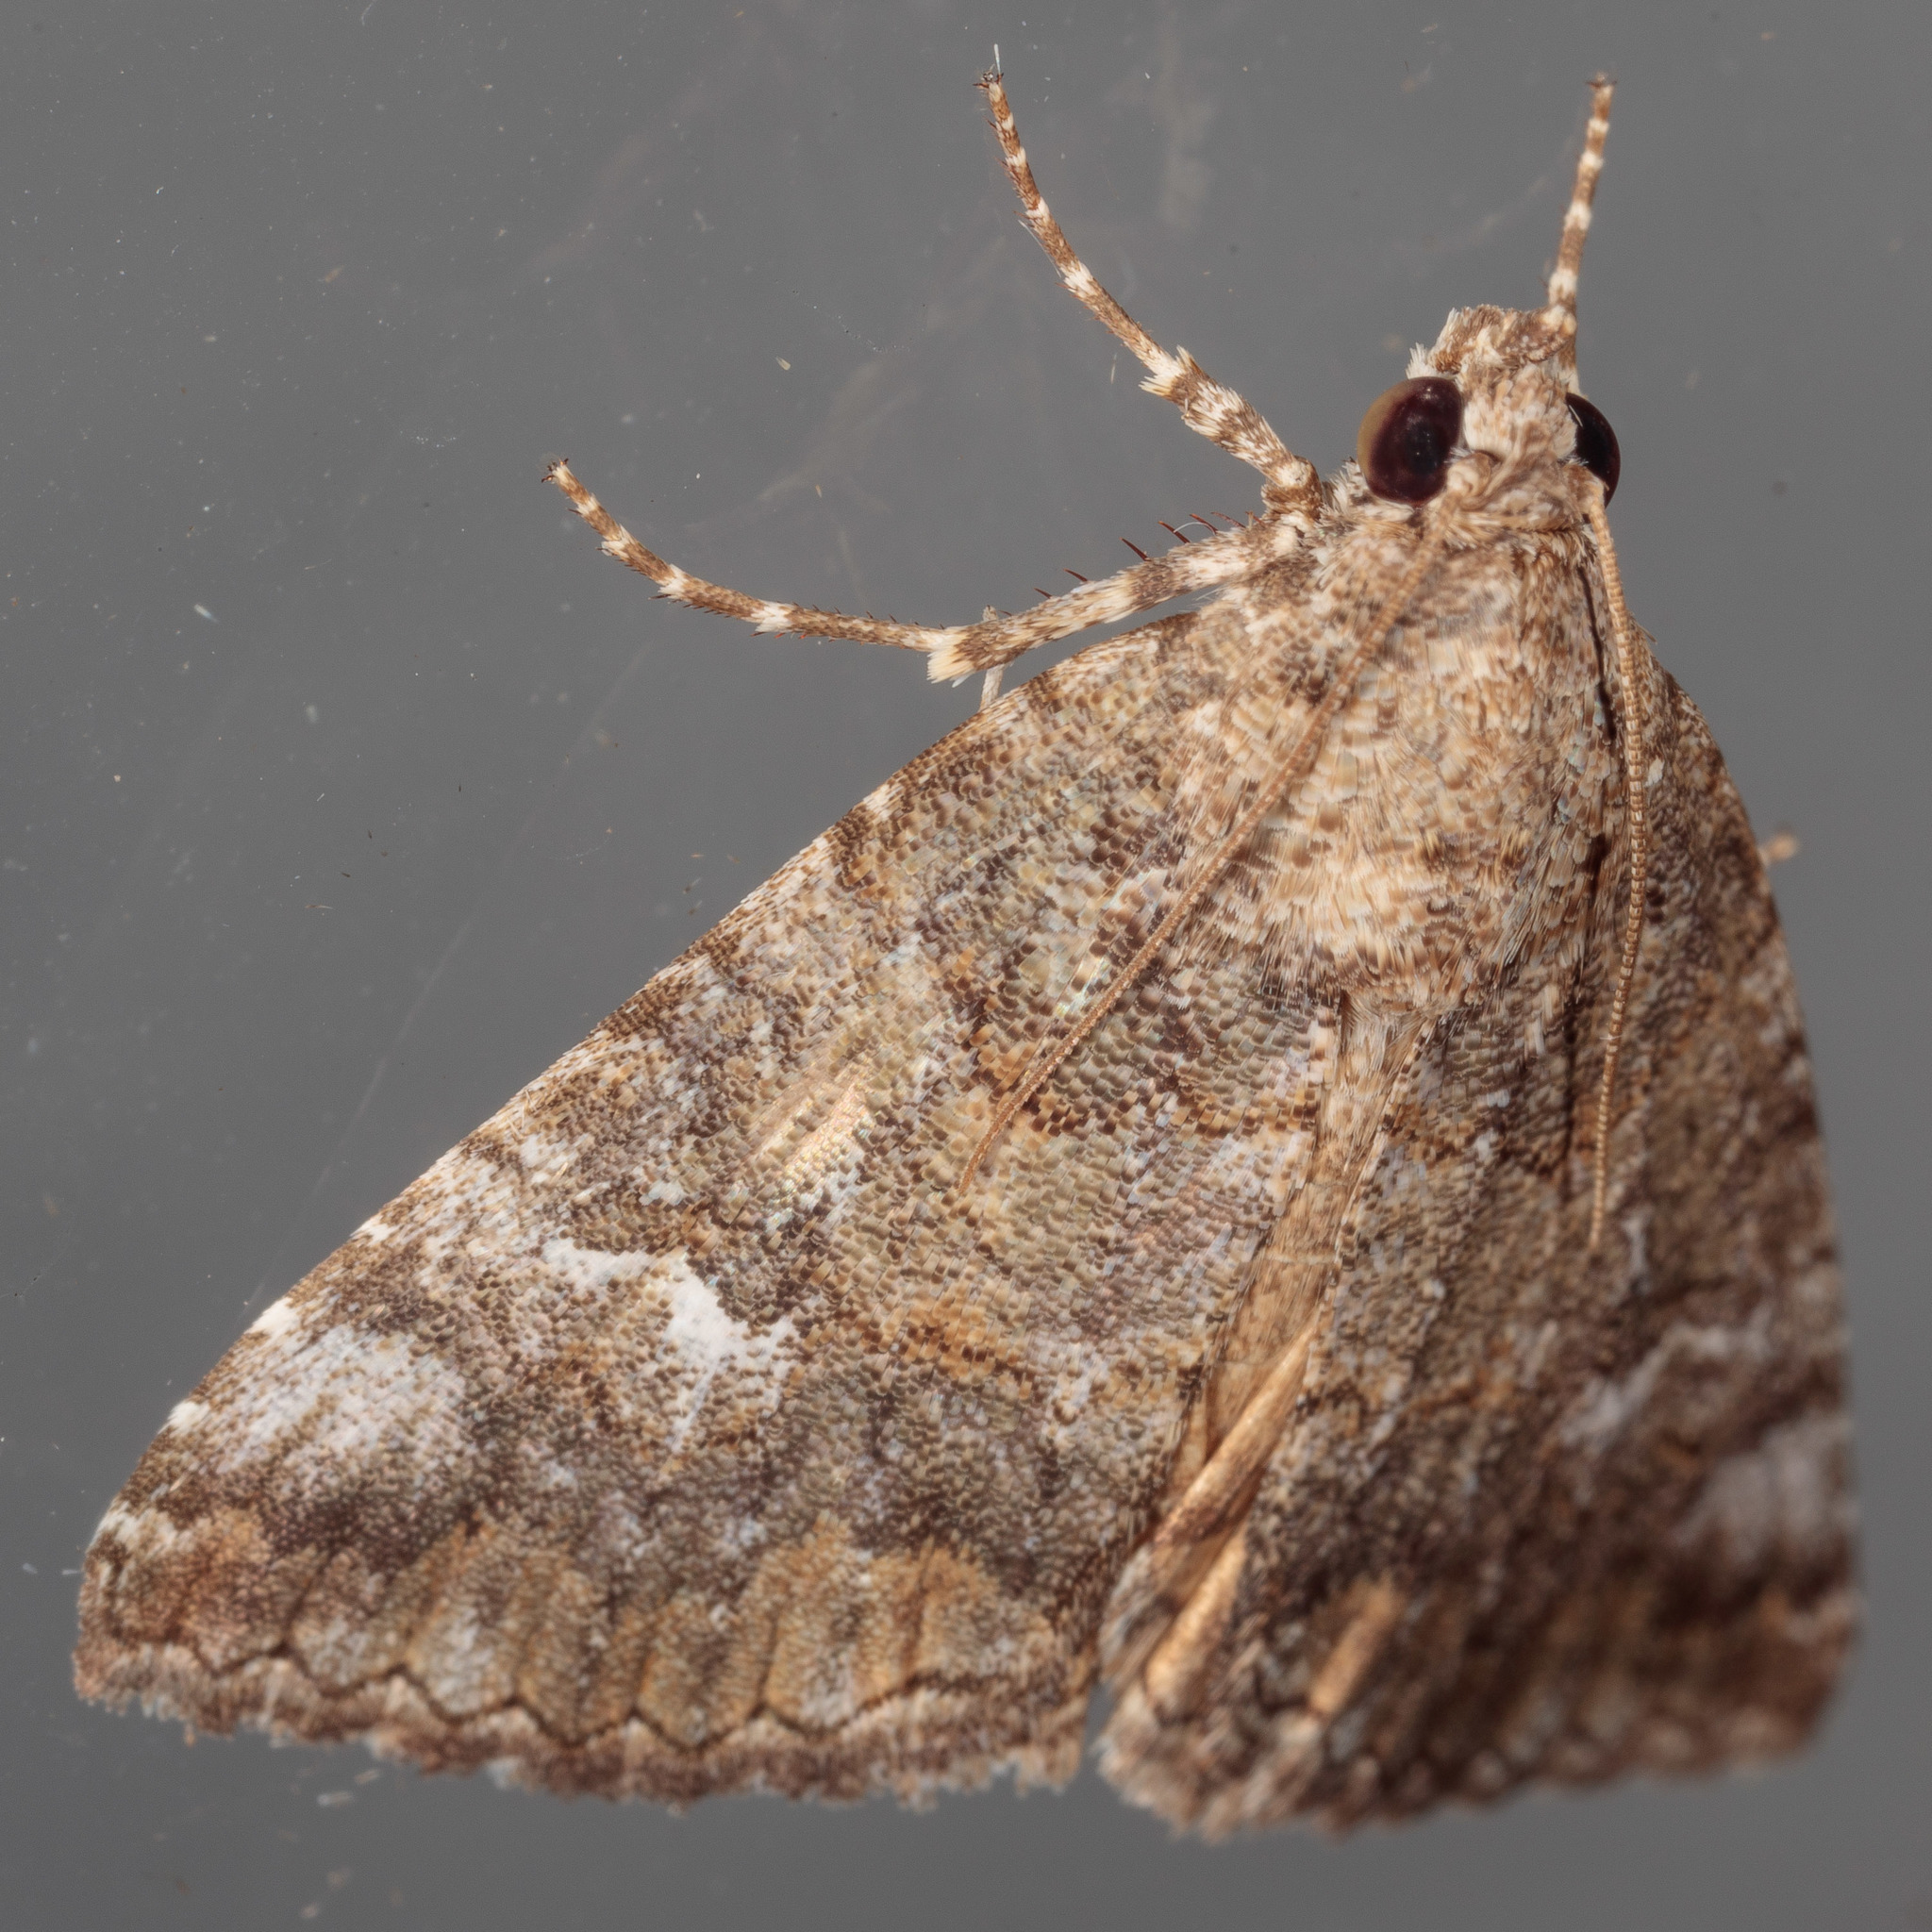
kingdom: Animalia
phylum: Arthropoda
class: Insecta
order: Lepidoptera
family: Erebidae
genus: Eubolina
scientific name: Eubolina impartialis
